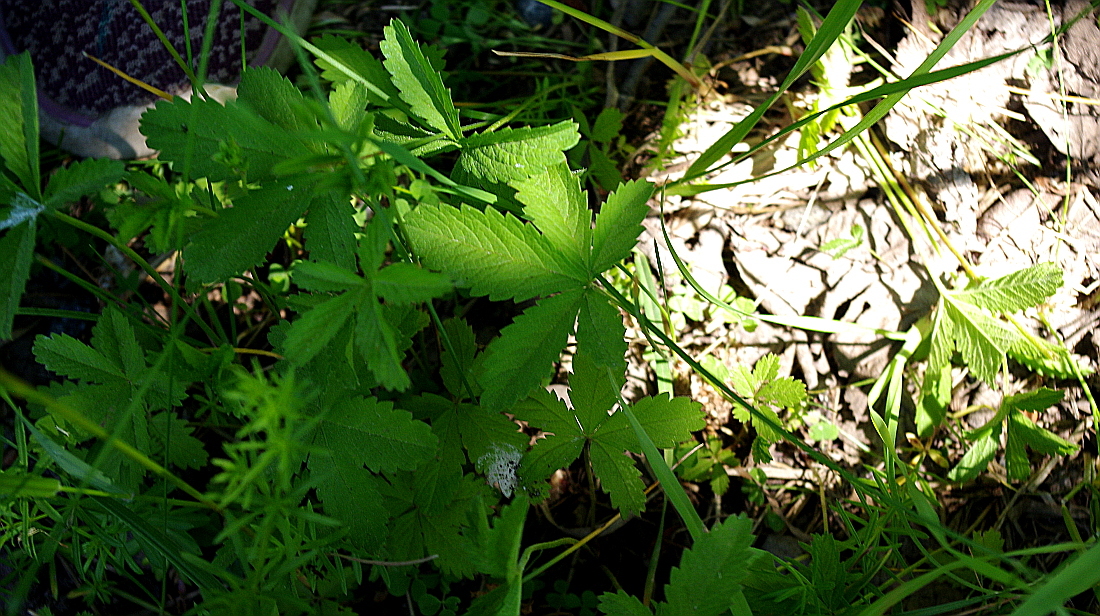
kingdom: Plantae
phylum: Tracheophyta
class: Magnoliopsida
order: Rosales
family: Rosaceae
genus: Potentilla
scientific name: Potentilla reptans
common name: Creeping cinquefoil
